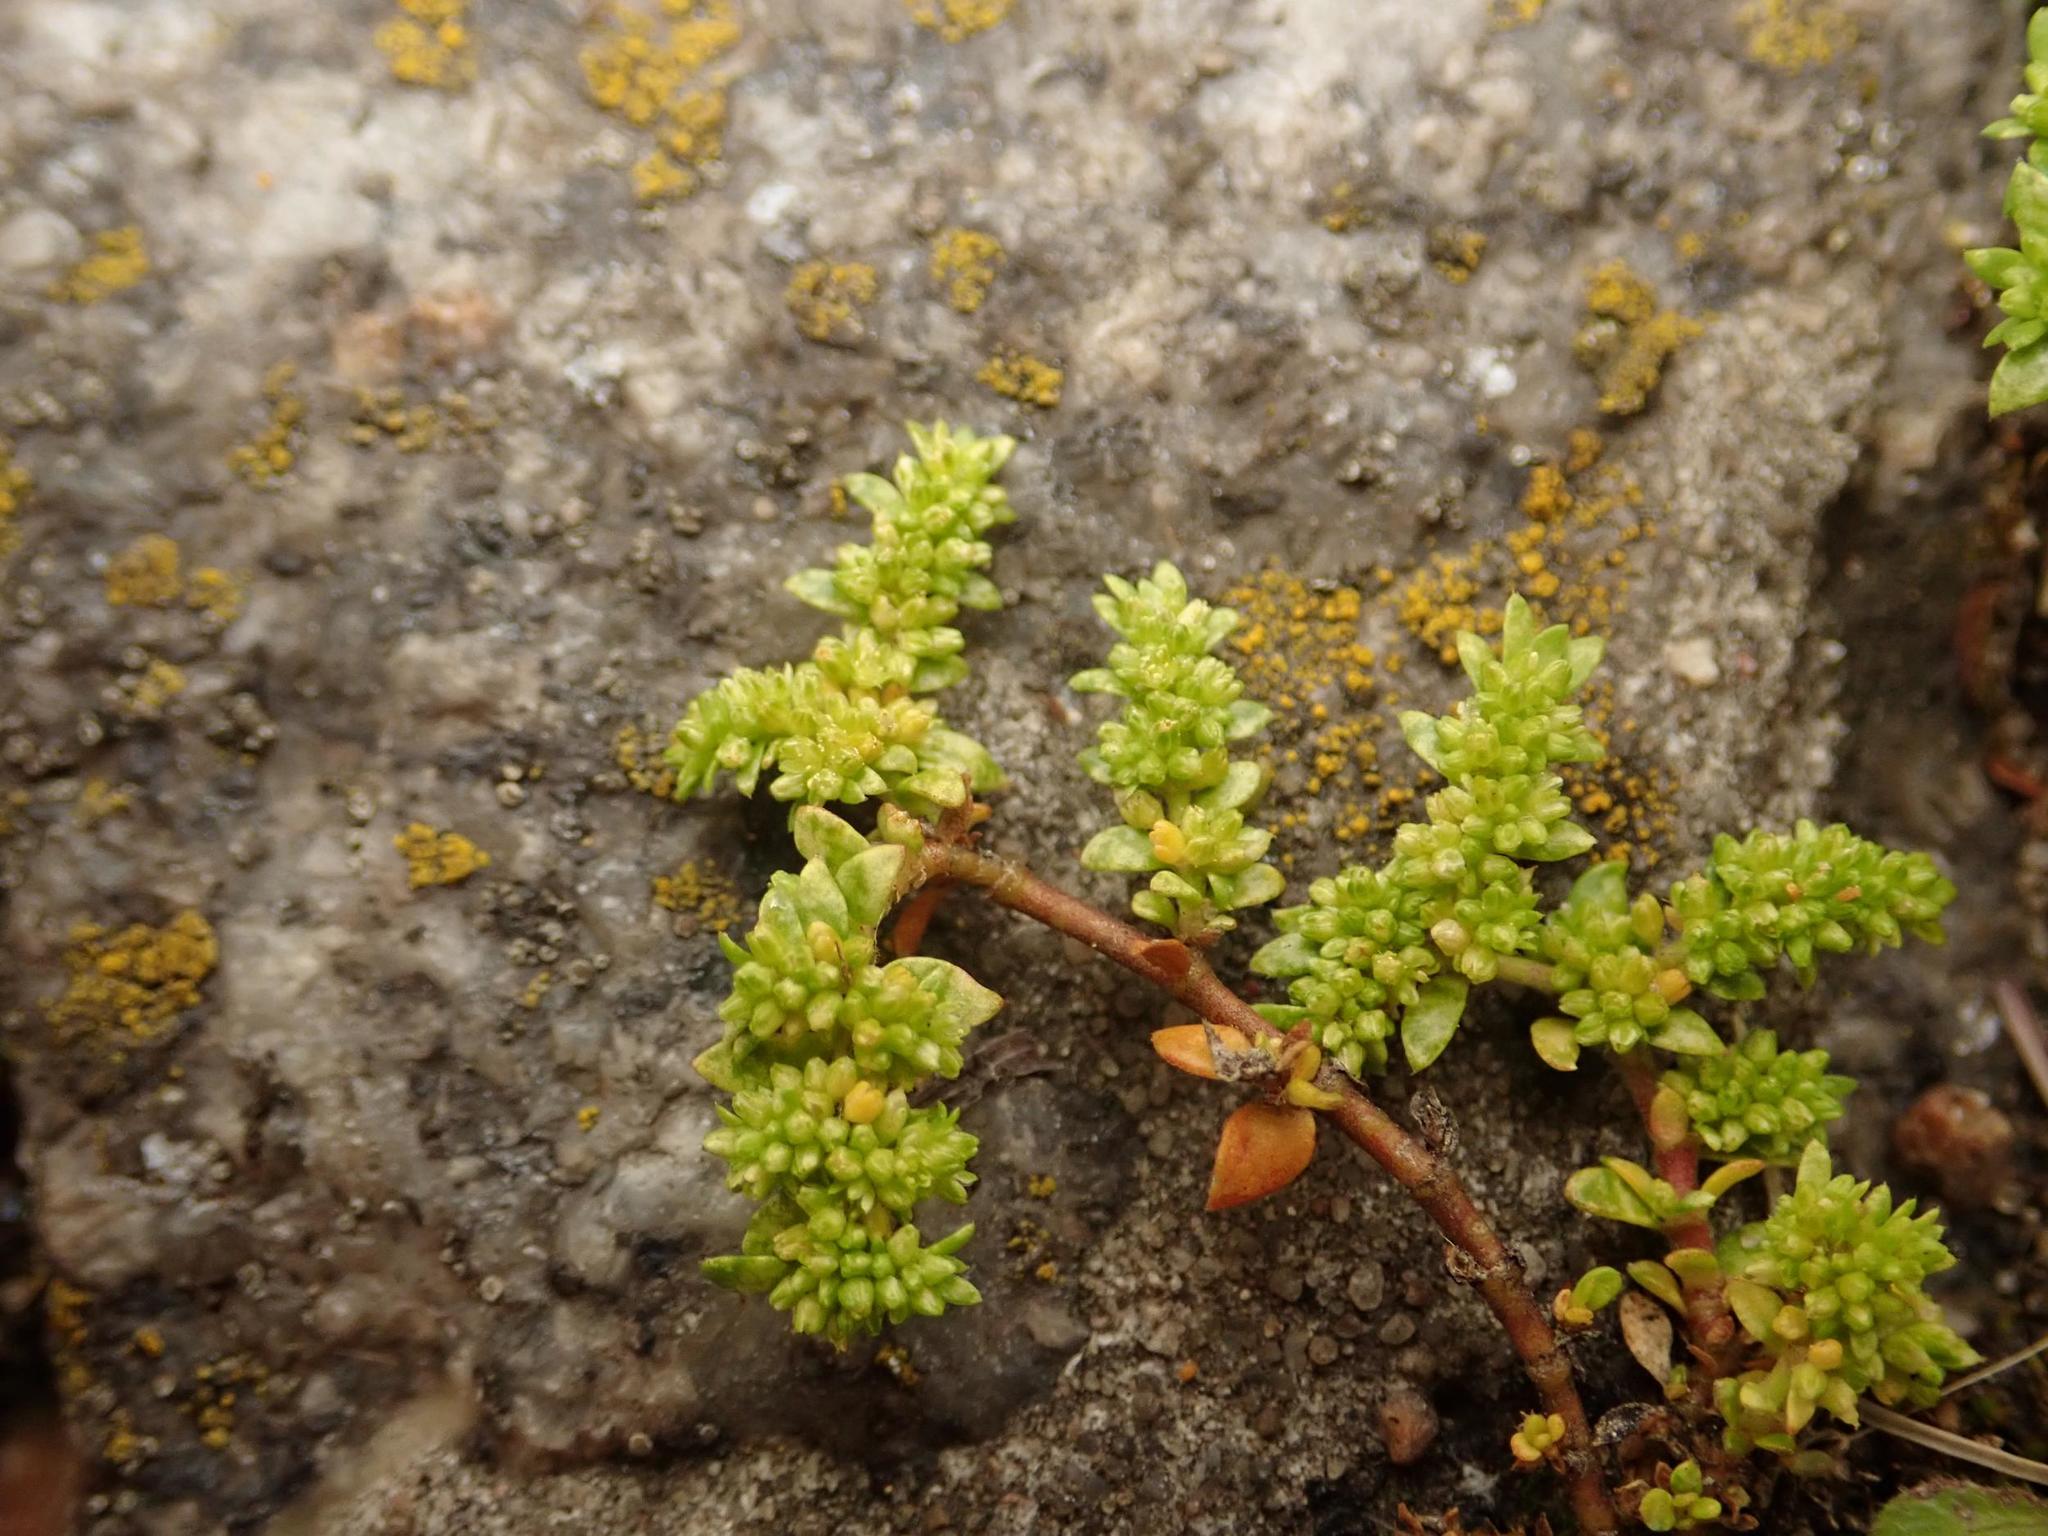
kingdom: Plantae
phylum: Tracheophyta
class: Magnoliopsida
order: Caryophyllales
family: Caryophyllaceae
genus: Herniaria
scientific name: Herniaria glabra
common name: Smooth rupturewort
